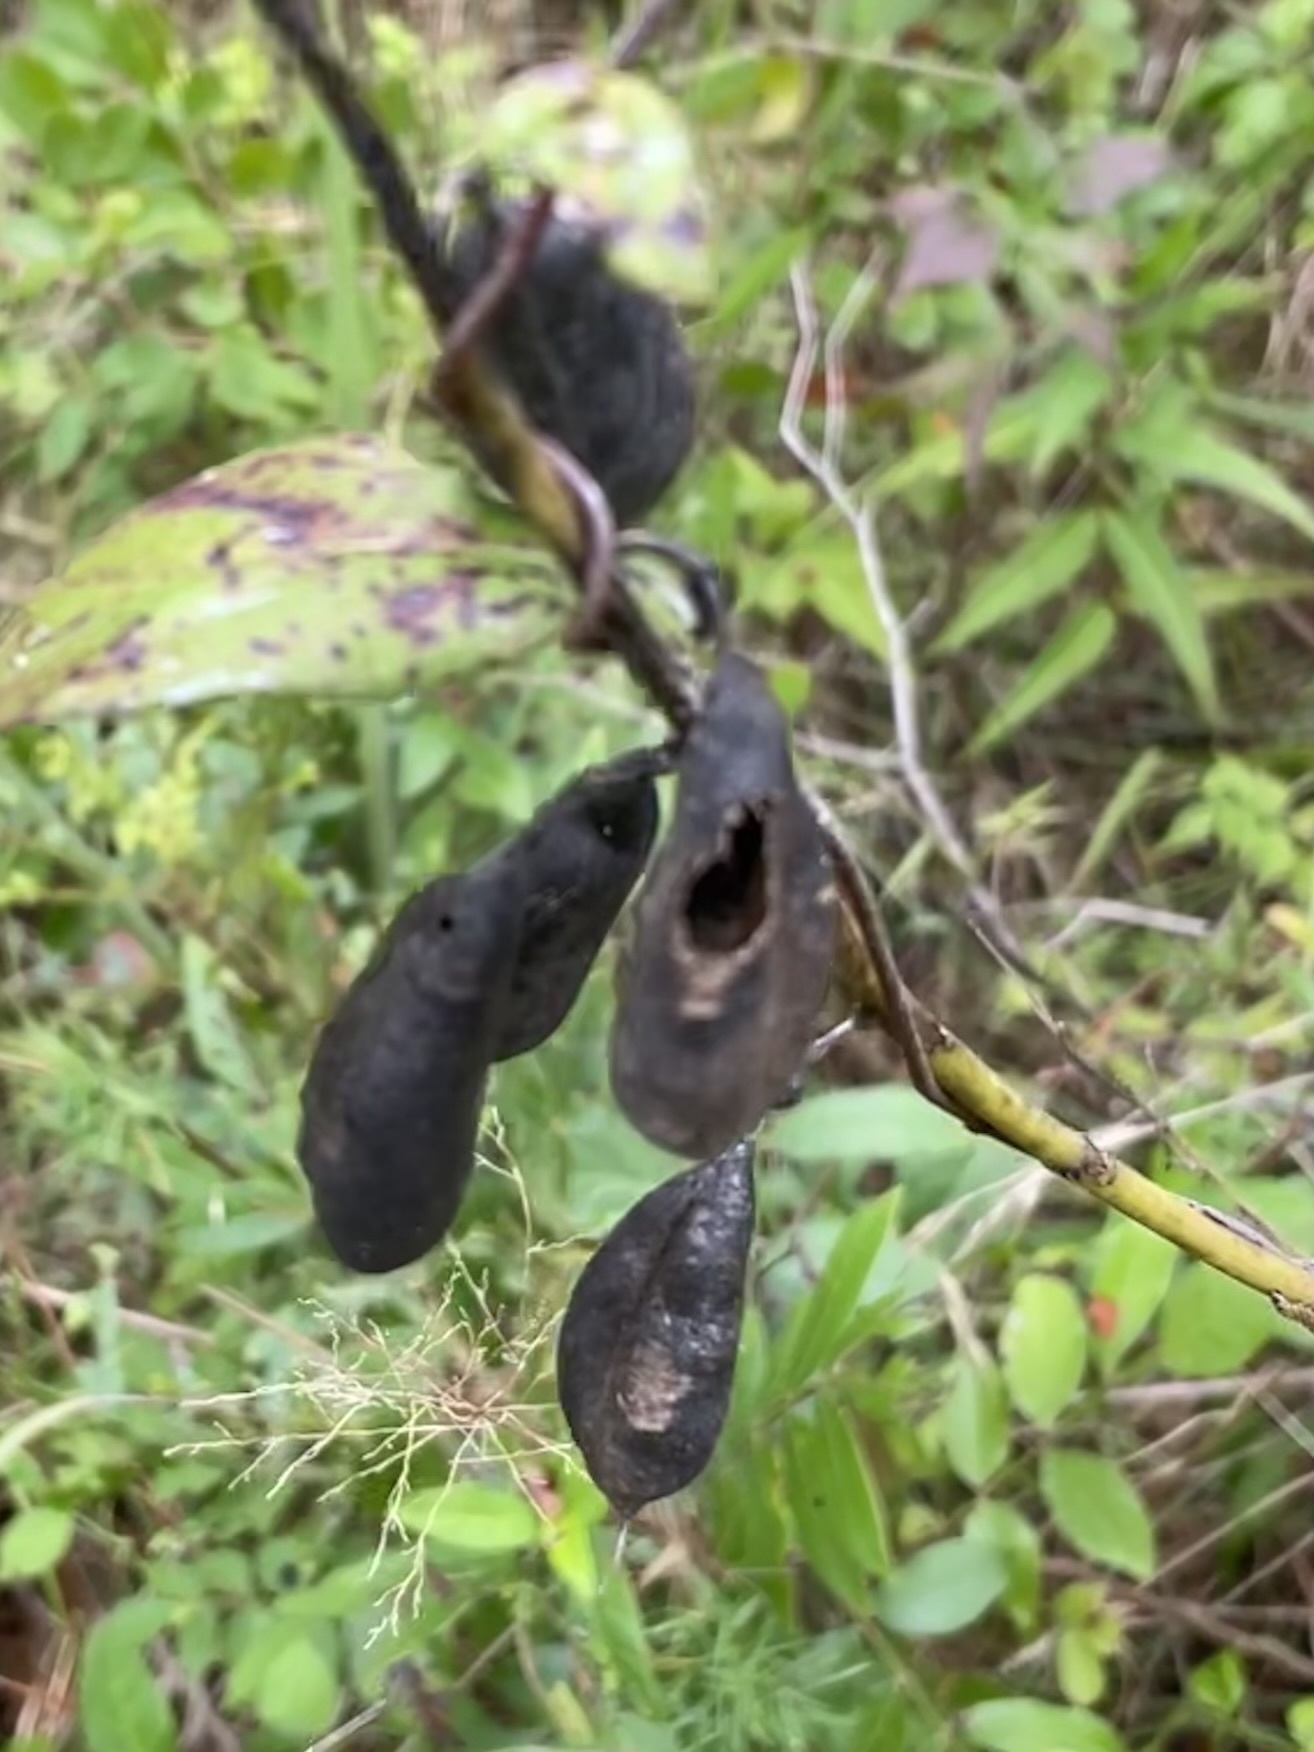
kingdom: Plantae
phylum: Tracheophyta
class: Magnoliopsida
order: Fabales
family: Fabaceae
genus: Baptisia
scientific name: Baptisia alba
